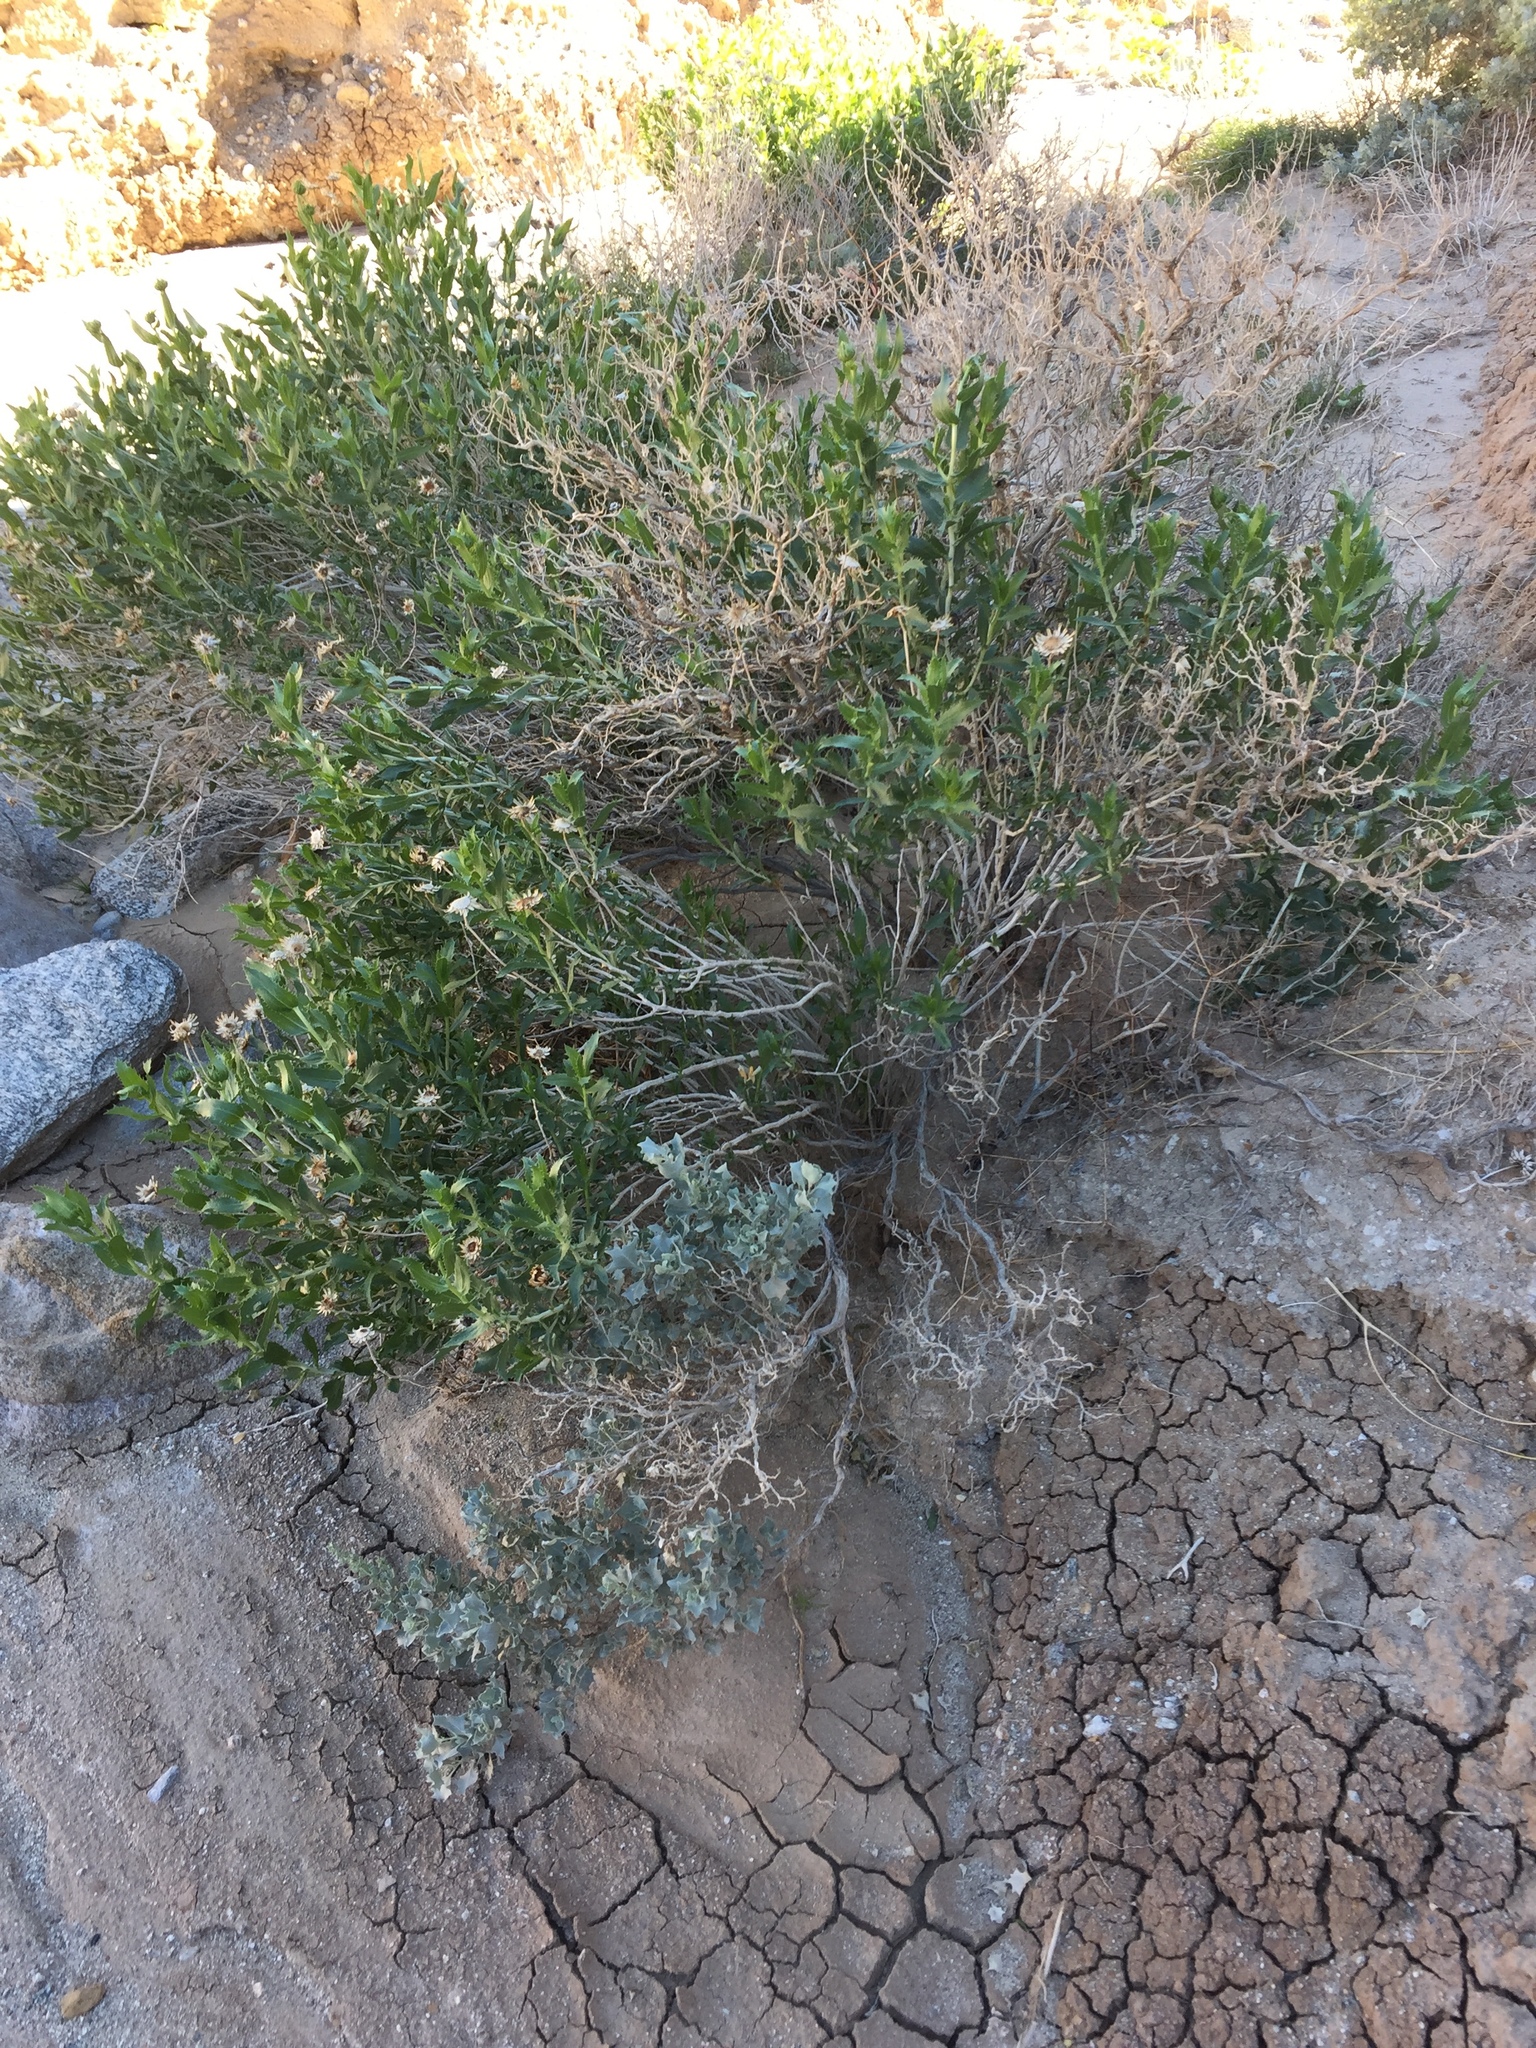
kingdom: Plantae
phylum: Tracheophyta
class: Magnoliopsida
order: Asterales
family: Asteraceae
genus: Xylorhiza
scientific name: Xylorhiza orcuttii
